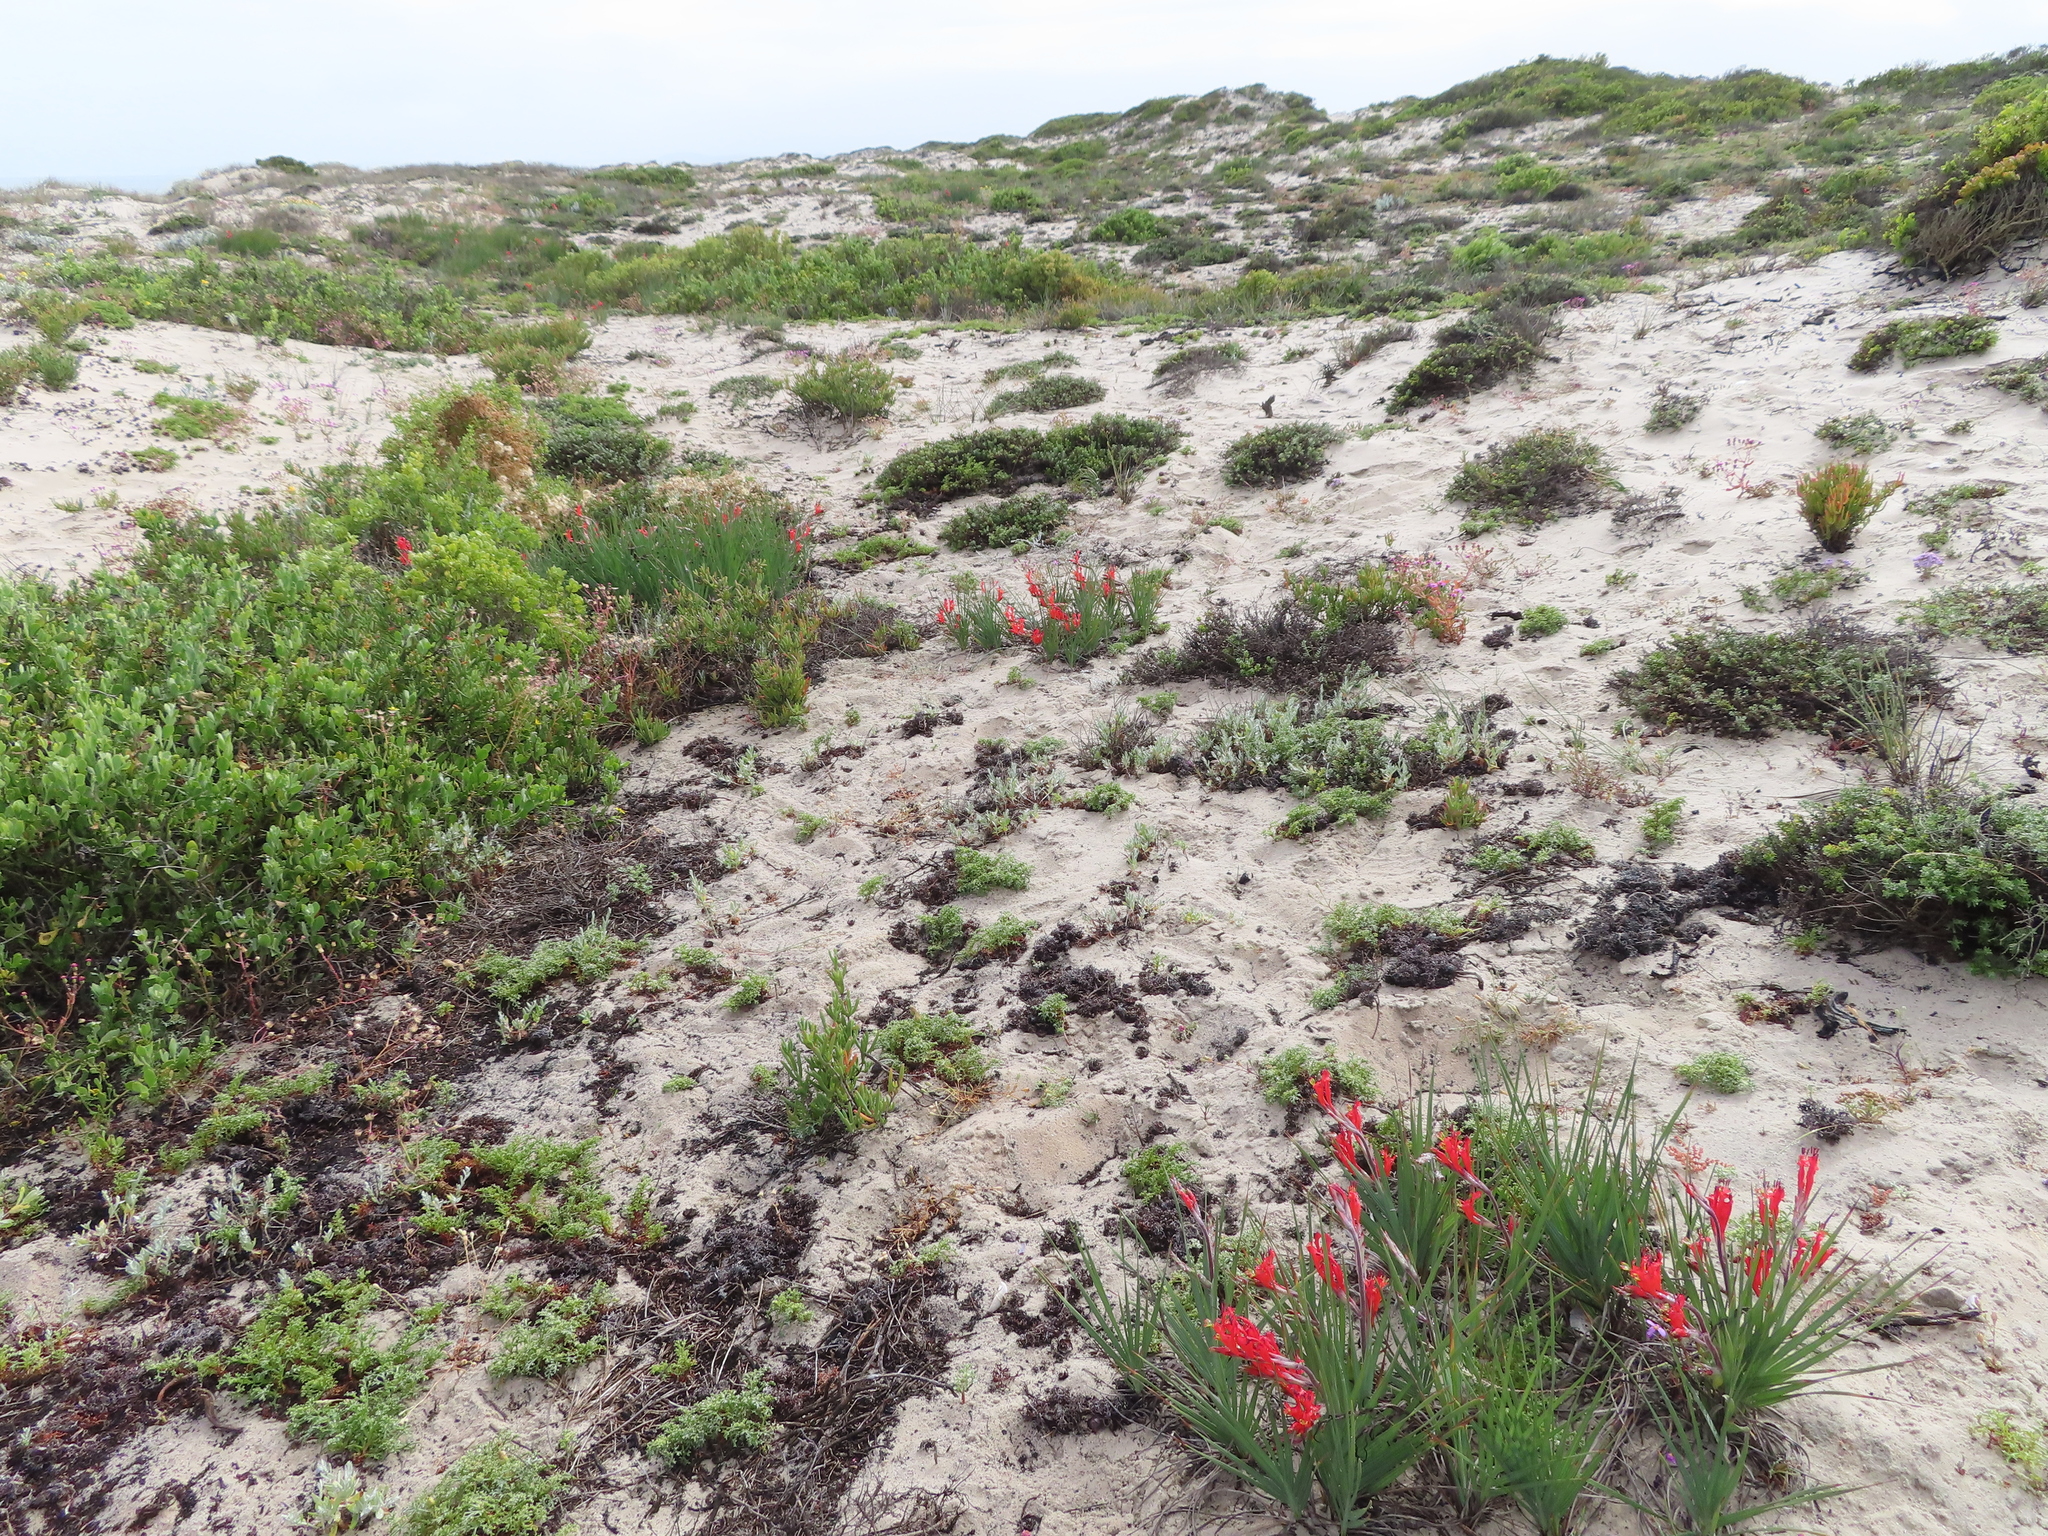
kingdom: Plantae
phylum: Tracheophyta
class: Liliopsida
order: Asparagales
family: Iridaceae
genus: Babiana
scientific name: Babiana hirsuta
